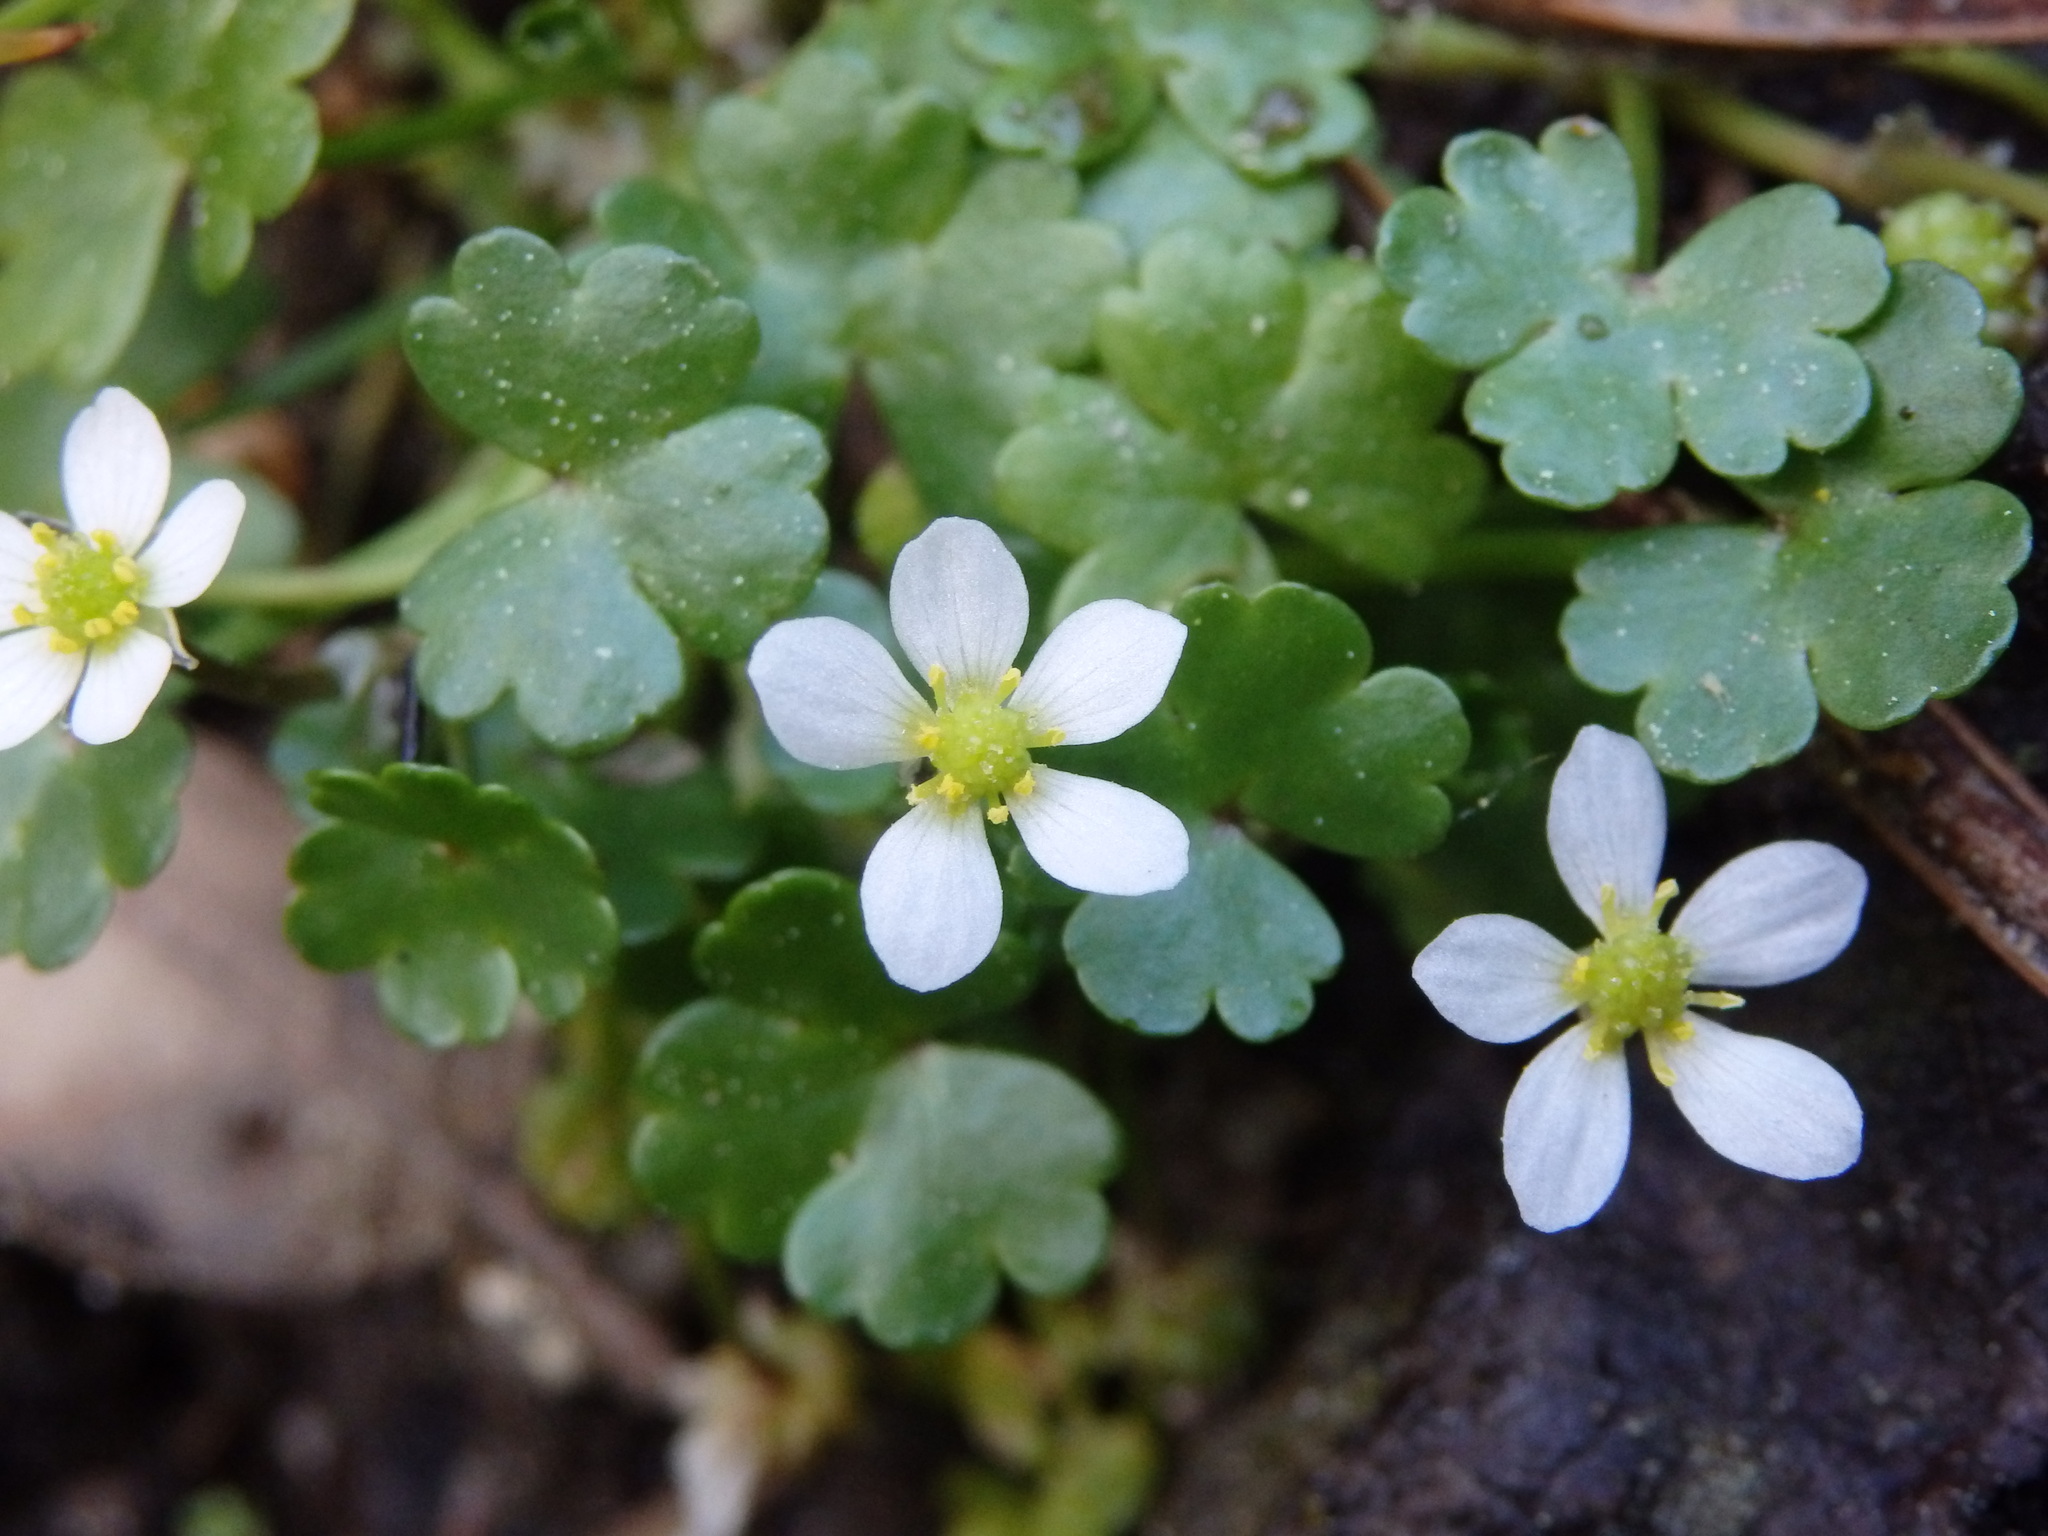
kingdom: Plantae
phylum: Tracheophyta
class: Magnoliopsida
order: Ranunculales
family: Ranunculaceae
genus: Ranunculus
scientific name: Ranunculus omiophyllus
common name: Round-leaved crowfoot
